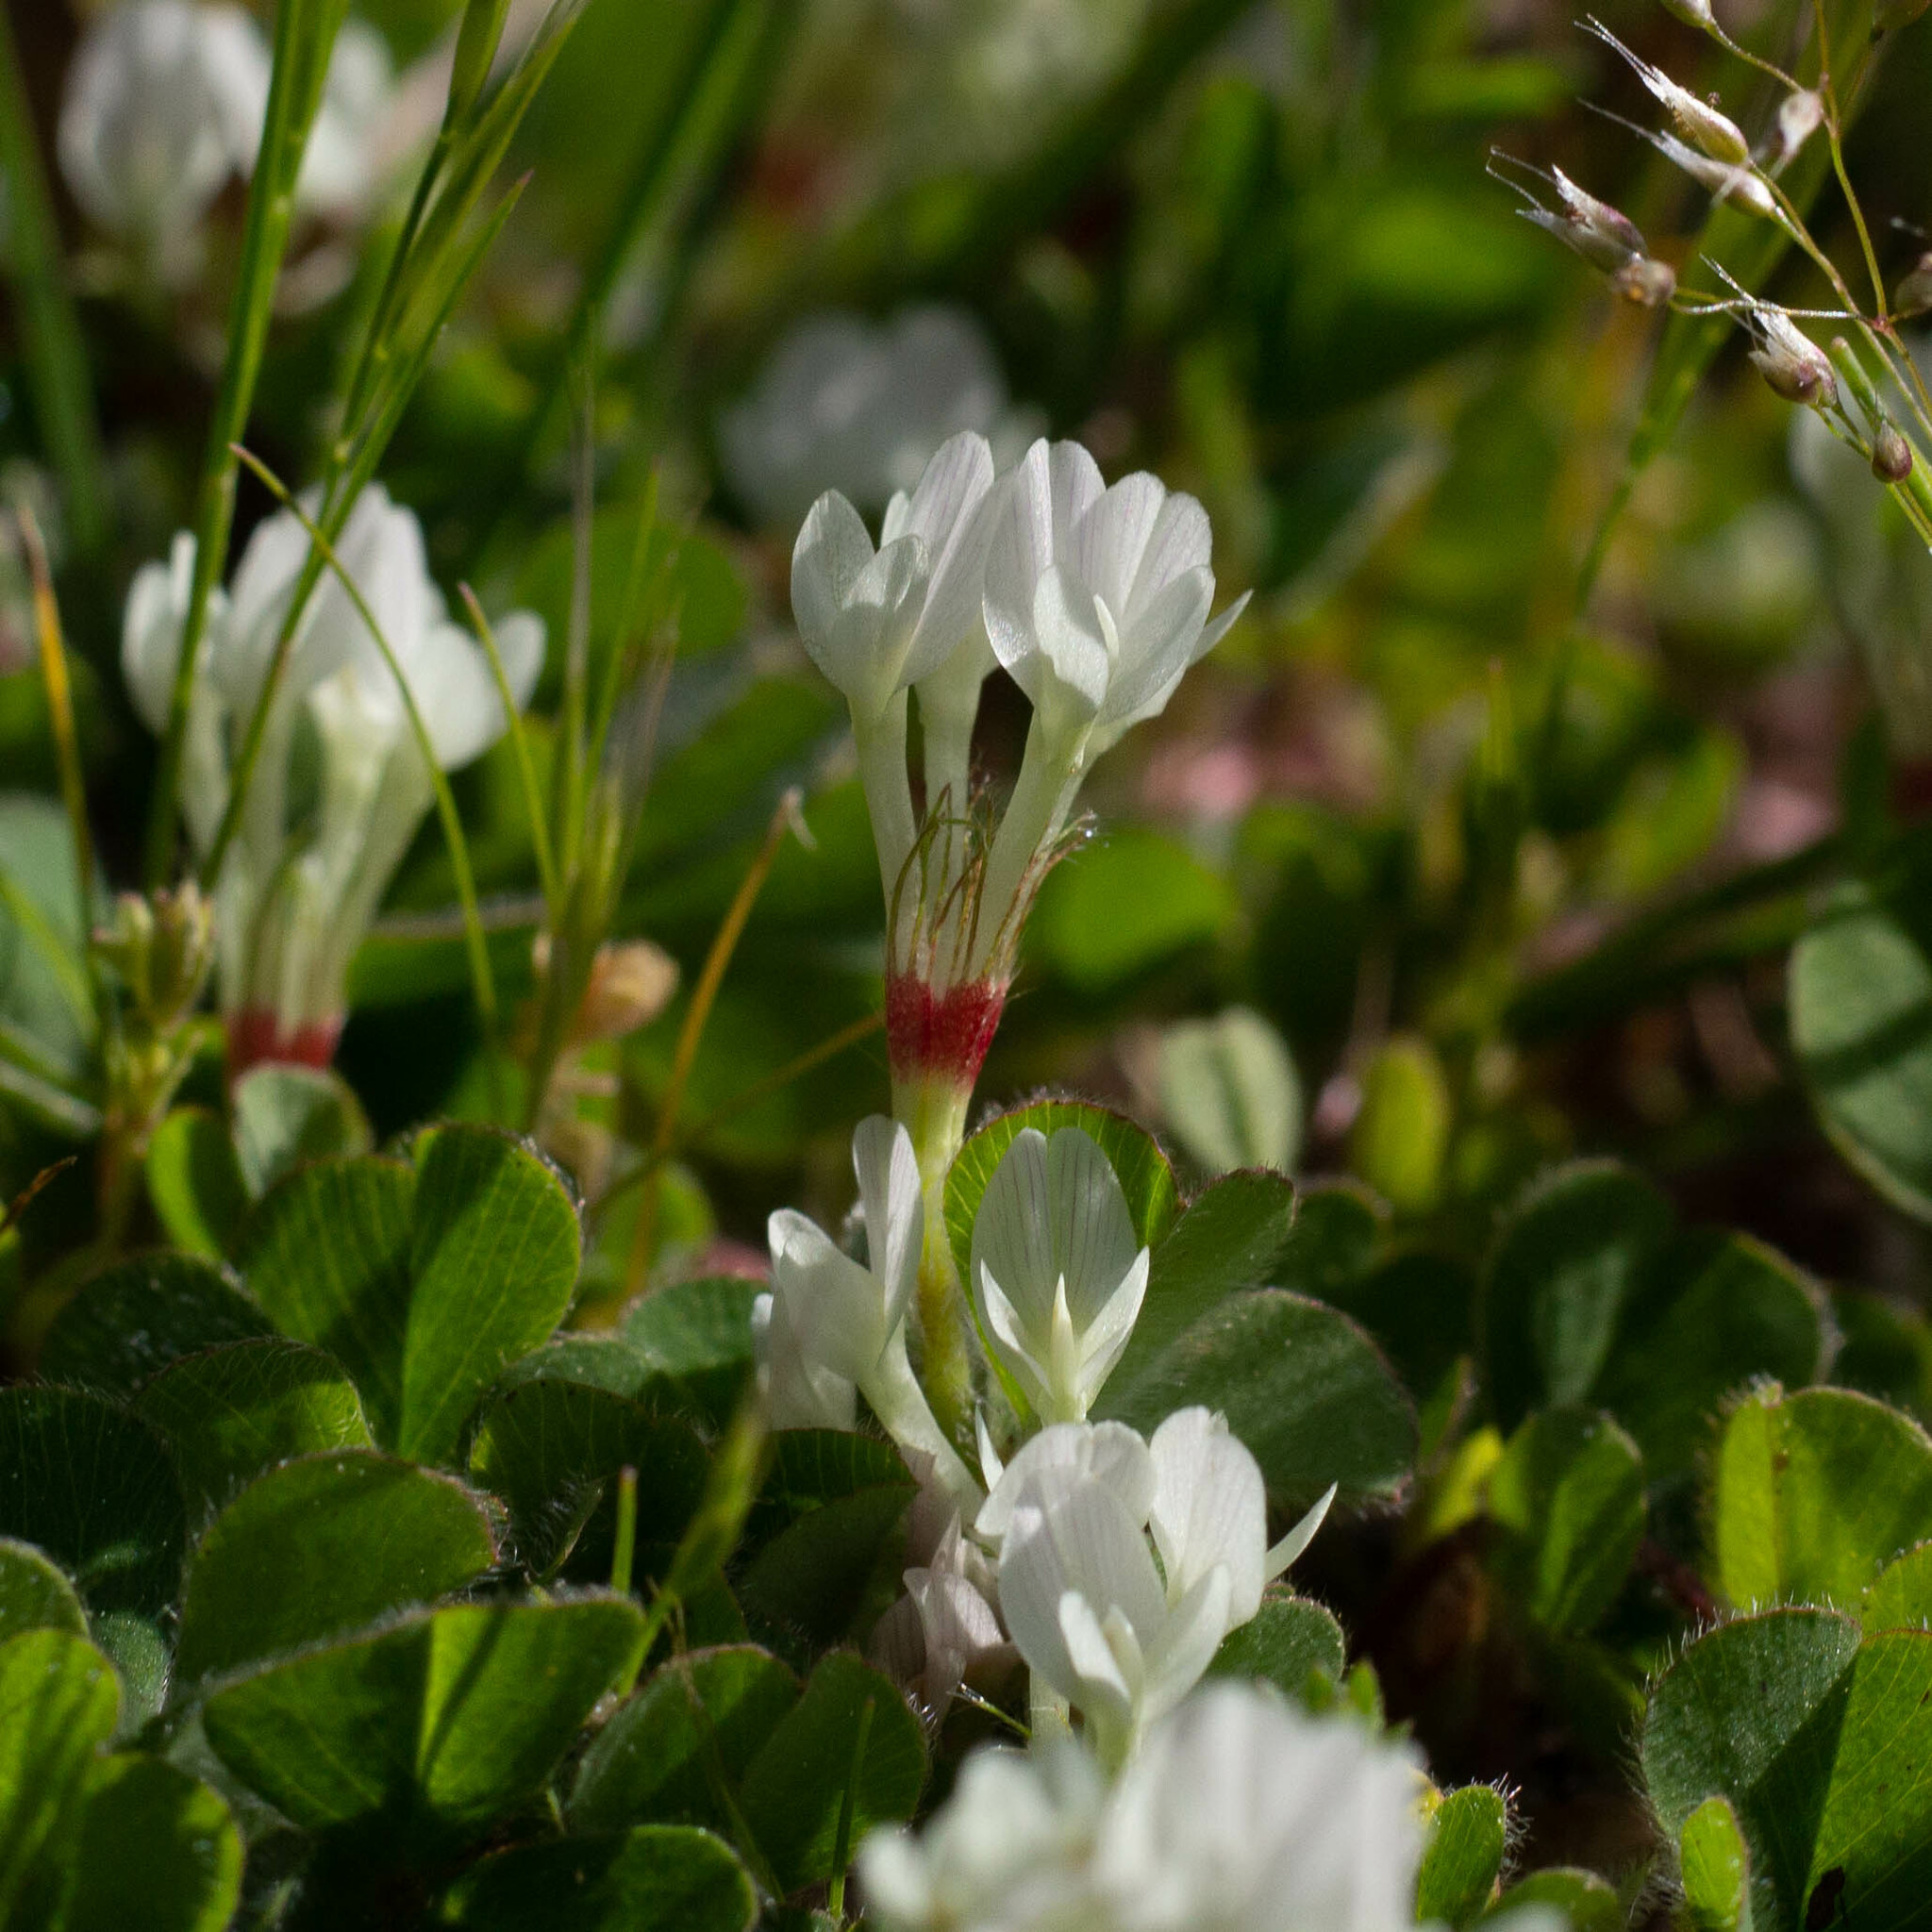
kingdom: Plantae
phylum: Tracheophyta
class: Magnoliopsida
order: Fabales
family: Fabaceae
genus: Trifolium
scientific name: Trifolium subterraneum
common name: Subterranean clover
